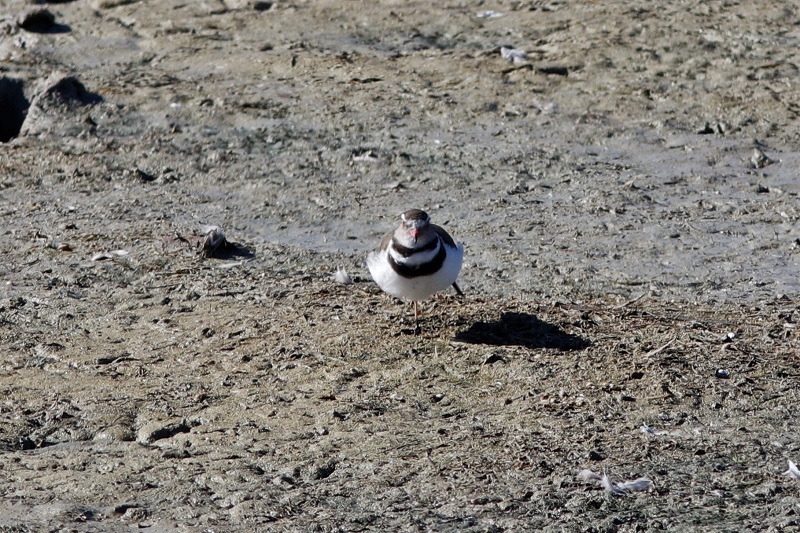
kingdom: Animalia
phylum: Chordata
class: Aves
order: Charadriiformes
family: Charadriidae
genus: Charadrius
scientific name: Charadrius tricollaris
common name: Three-banded plover
